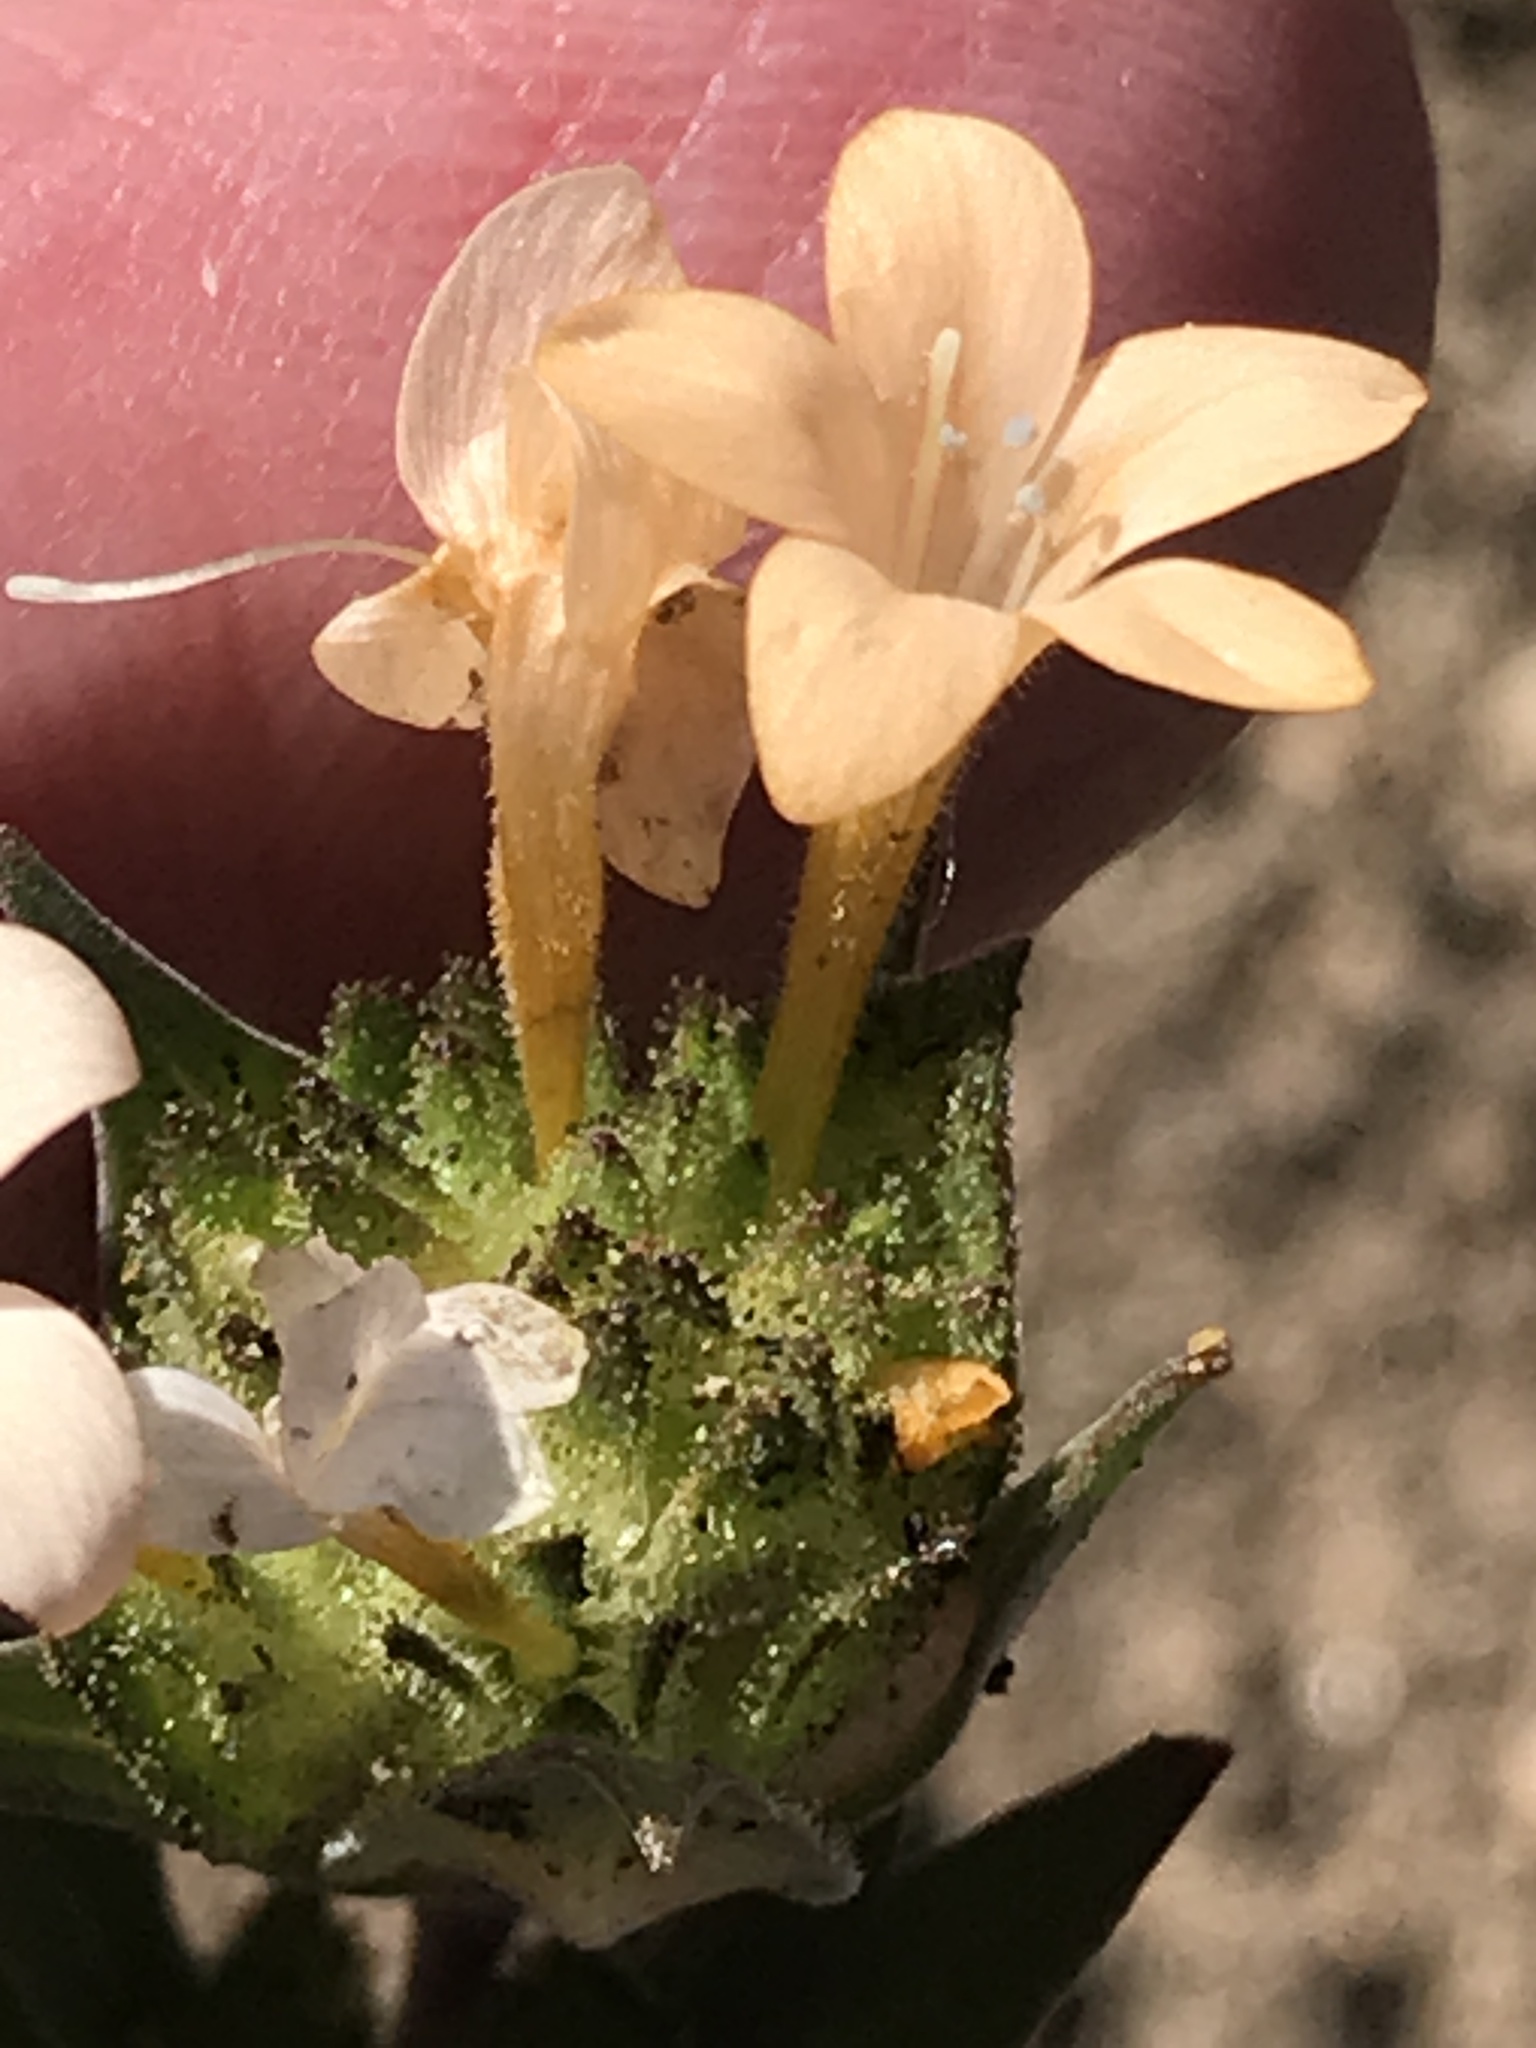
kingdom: Plantae
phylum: Tracheophyta
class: Magnoliopsida
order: Ericales
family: Polemoniaceae
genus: Collomia
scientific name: Collomia grandiflora
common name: California strawflower
